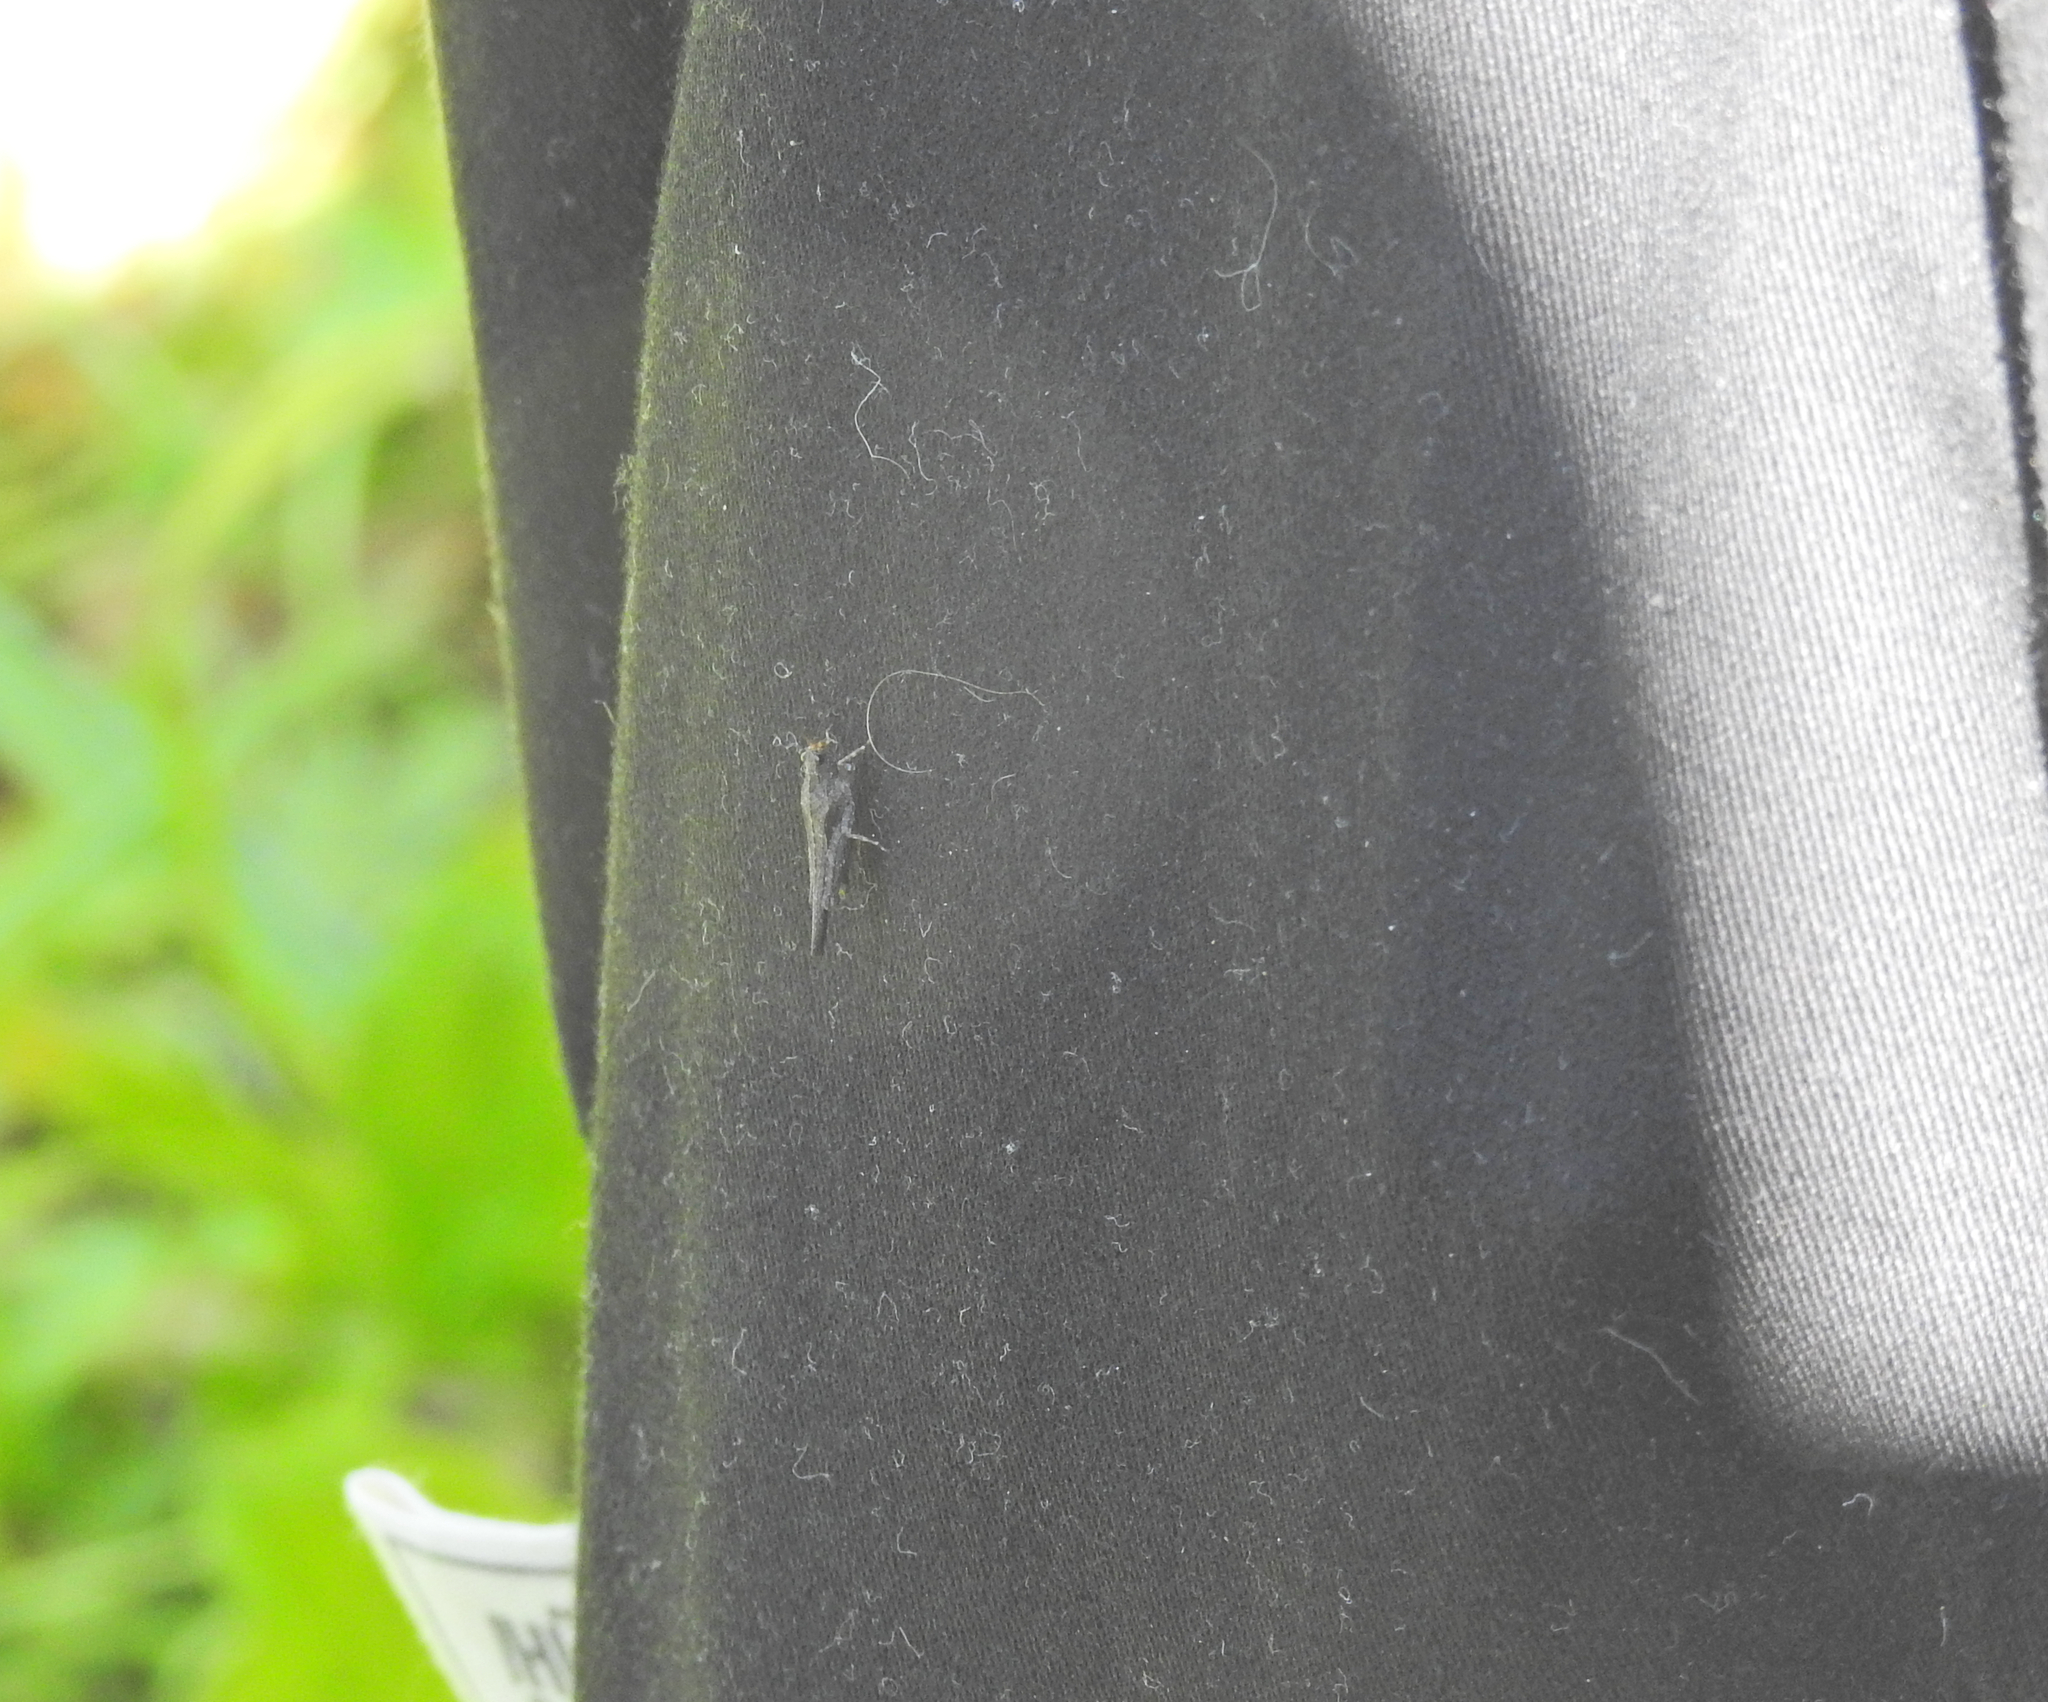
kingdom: Animalia
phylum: Arthropoda
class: Insecta
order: Orthoptera
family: Tetrigidae
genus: Tetrix
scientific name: Tetrix subulata
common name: Slender ground-hopper
